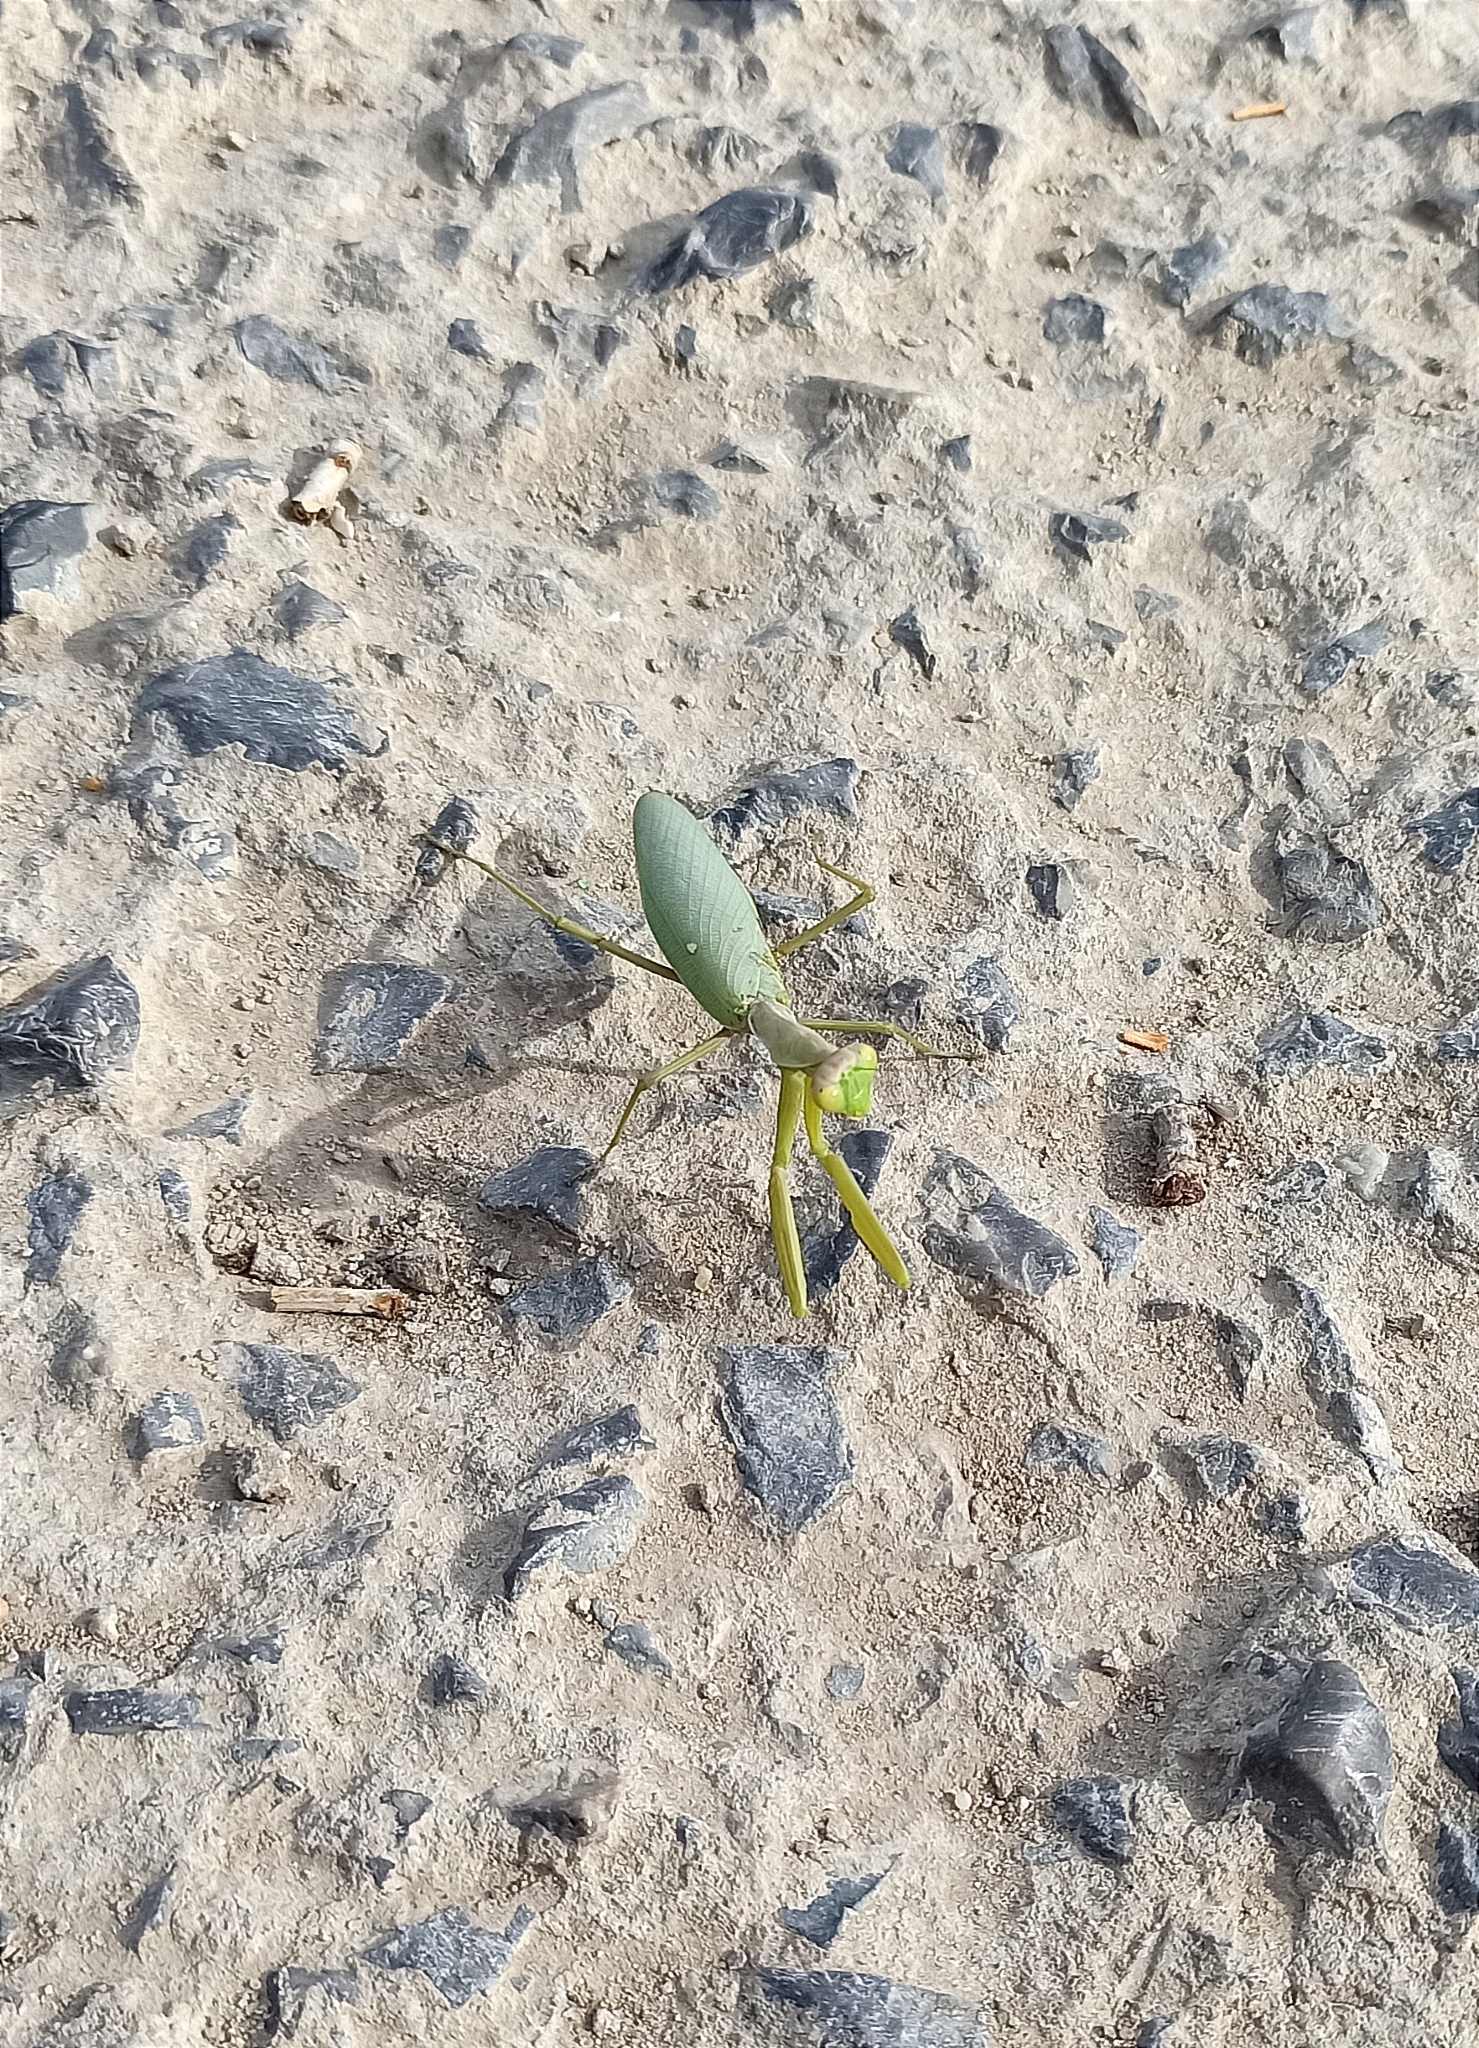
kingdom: Animalia
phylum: Arthropoda
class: Insecta
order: Mantodea
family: Mantidae
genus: Hierodula
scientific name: Hierodula transcaucasica
